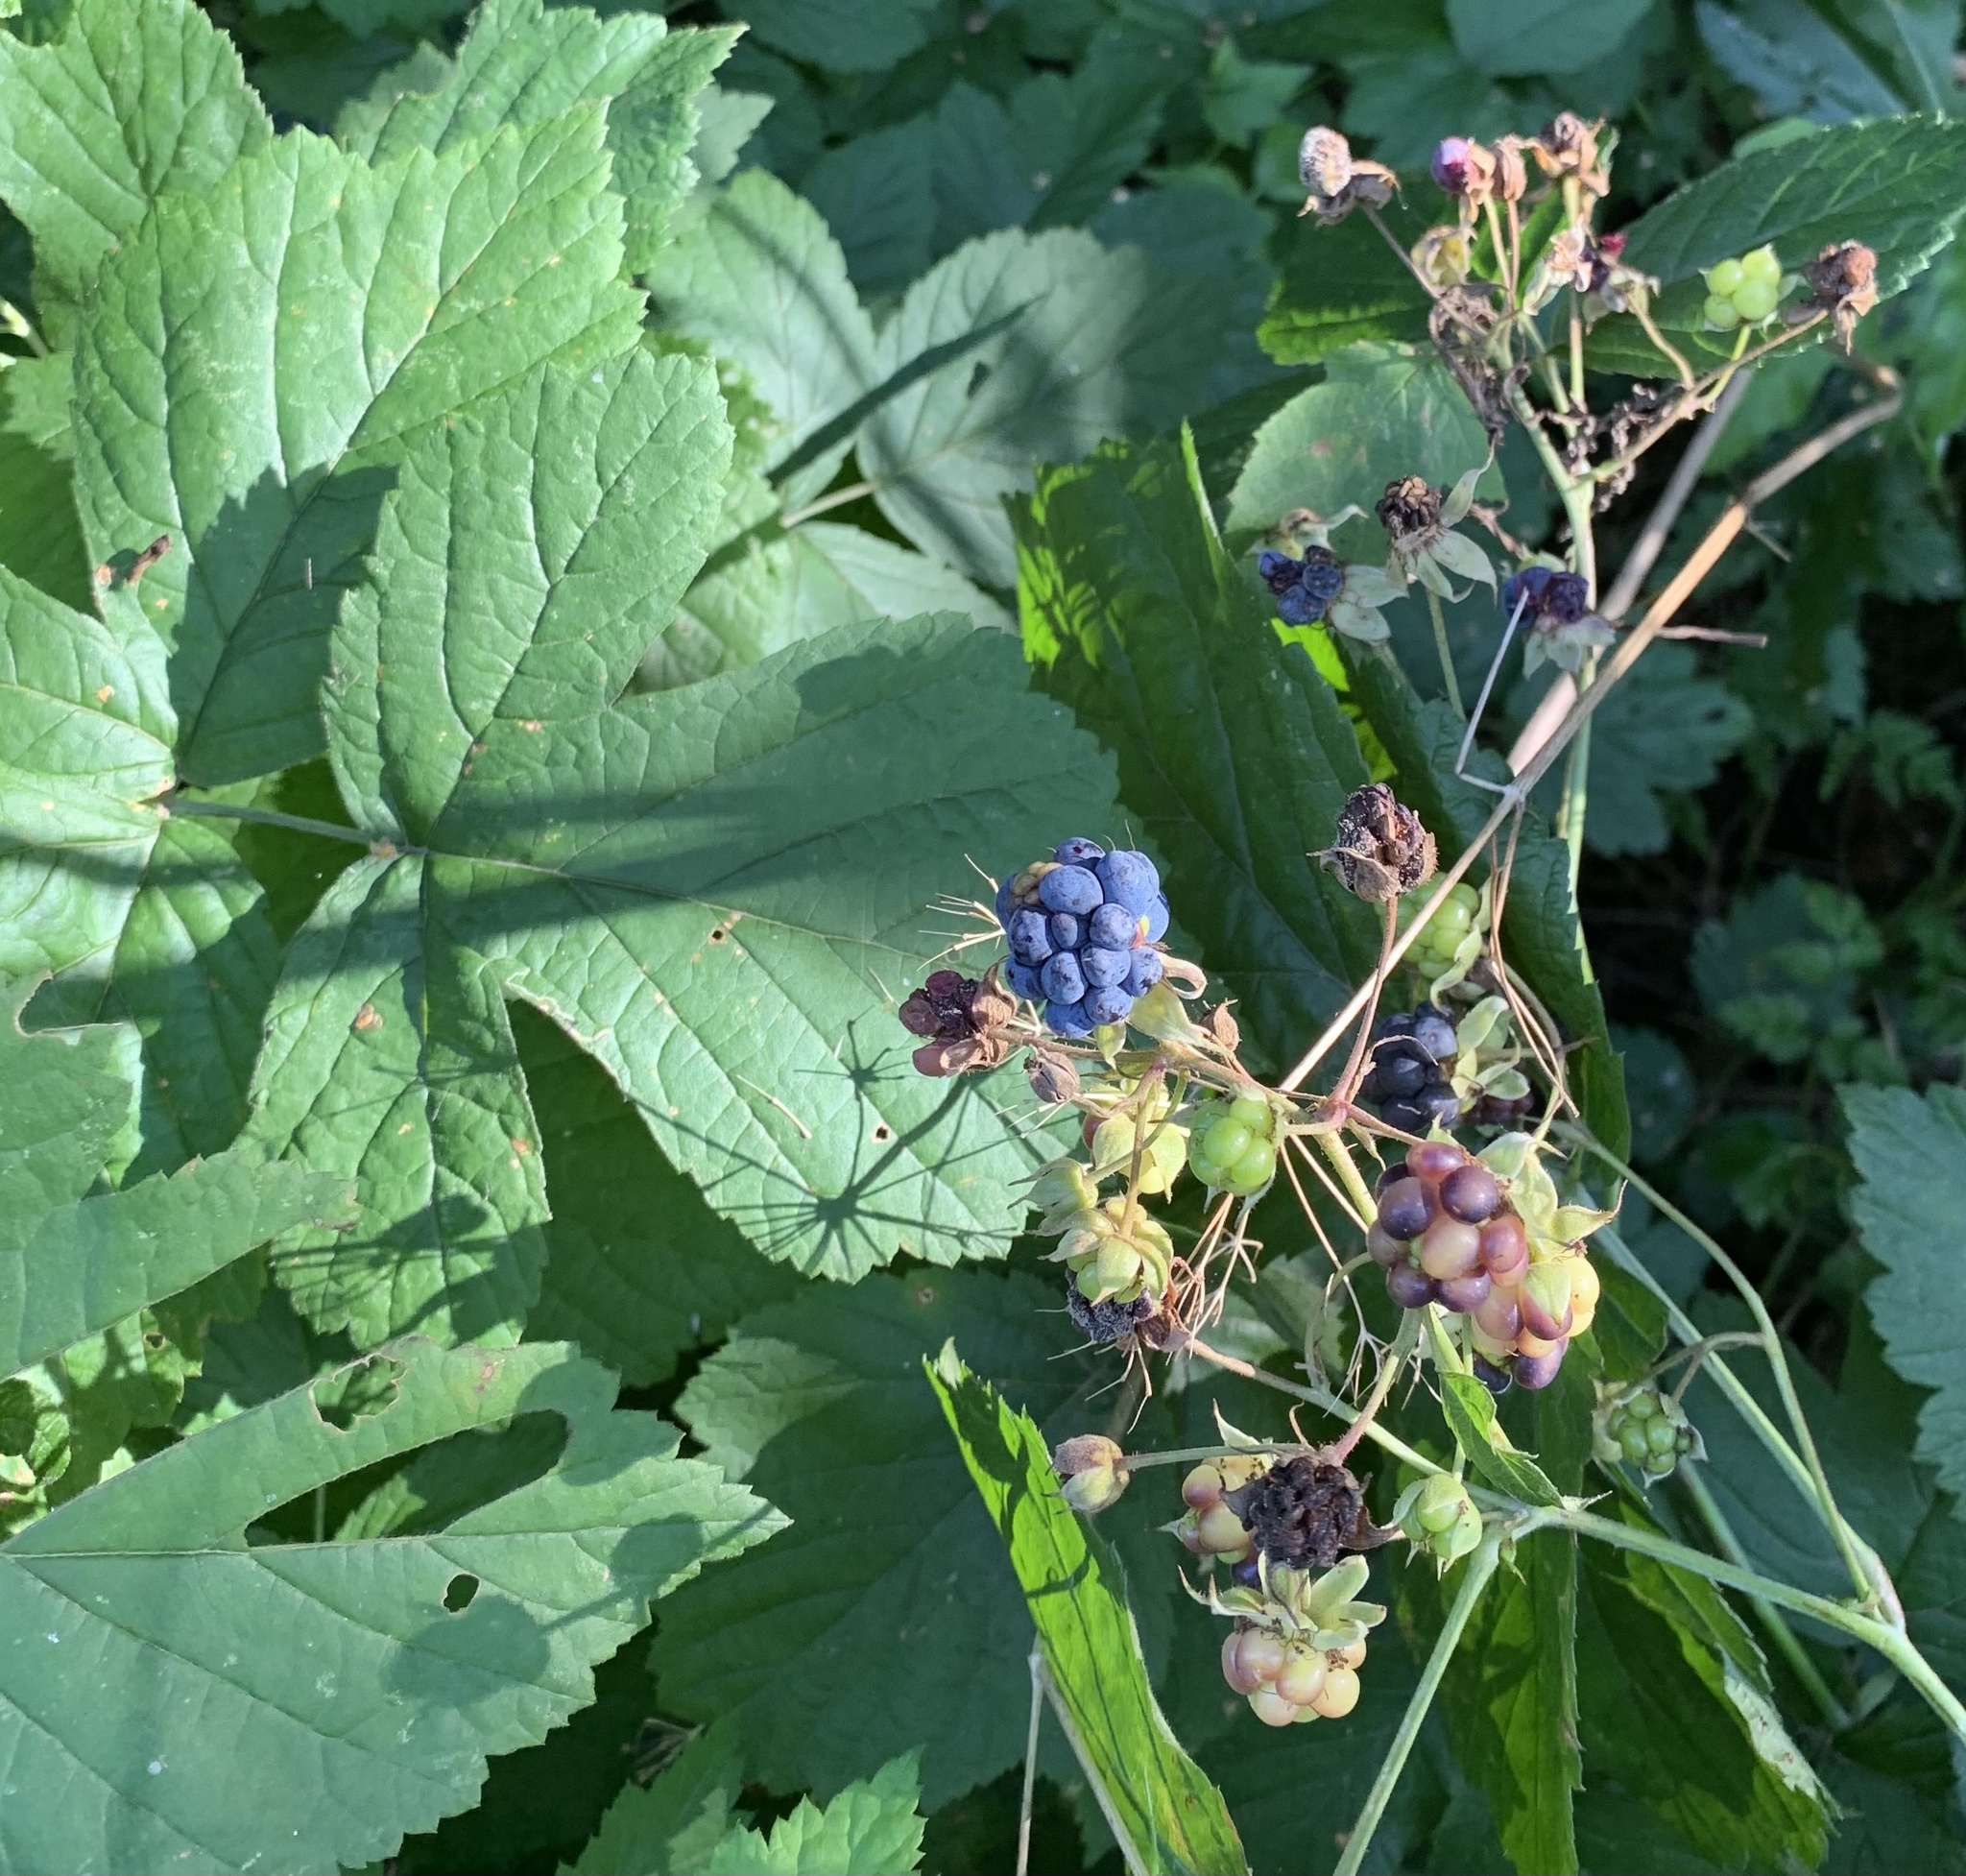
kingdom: Plantae
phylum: Tracheophyta
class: Magnoliopsida
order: Rosales
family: Rosaceae
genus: Rubus
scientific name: Rubus caesius
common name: Dewberry
